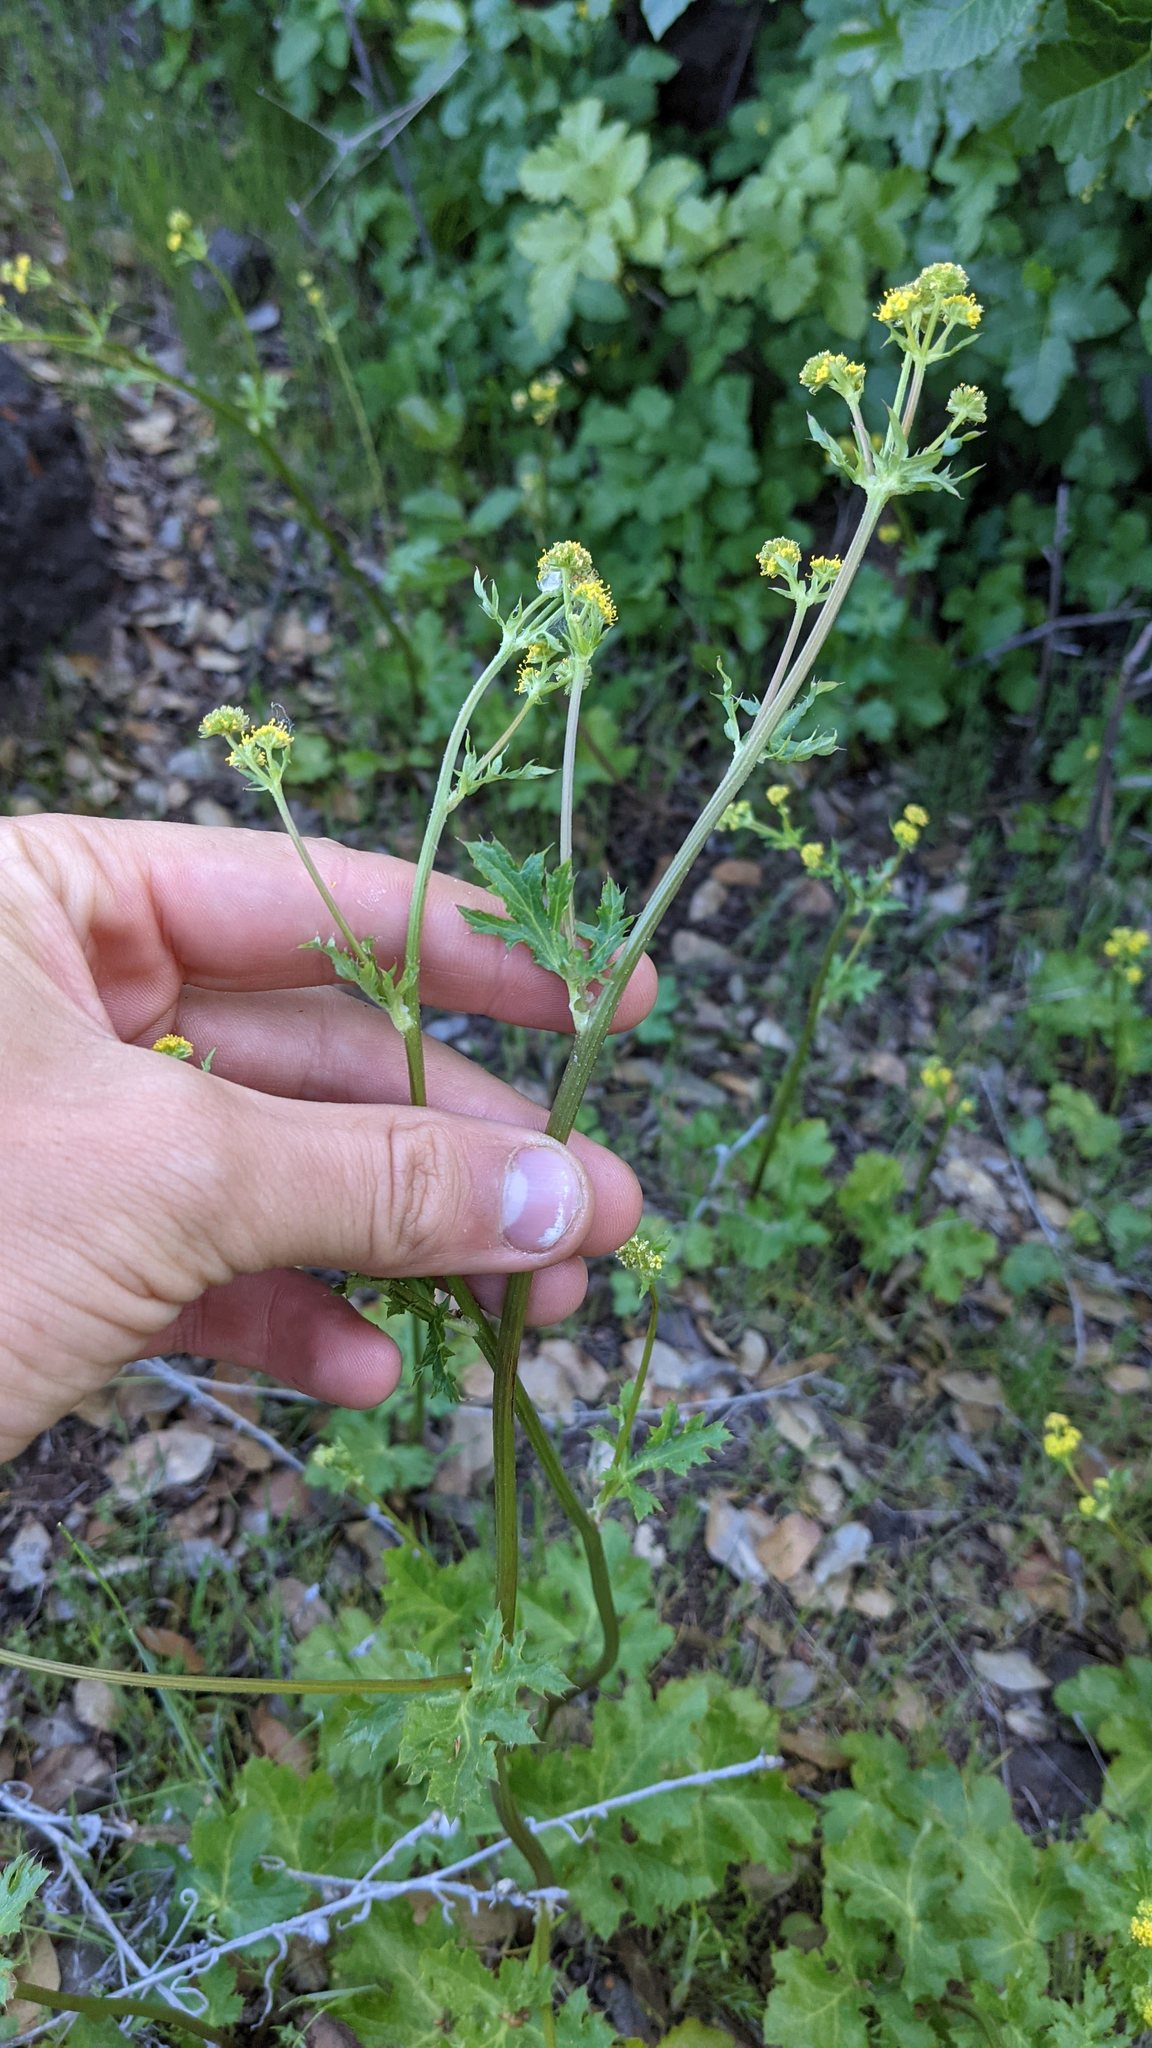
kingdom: Plantae
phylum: Tracheophyta
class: Magnoliopsida
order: Apiales
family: Apiaceae
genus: Sanicula
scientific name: Sanicula crassicaulis
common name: Western snakeroot
